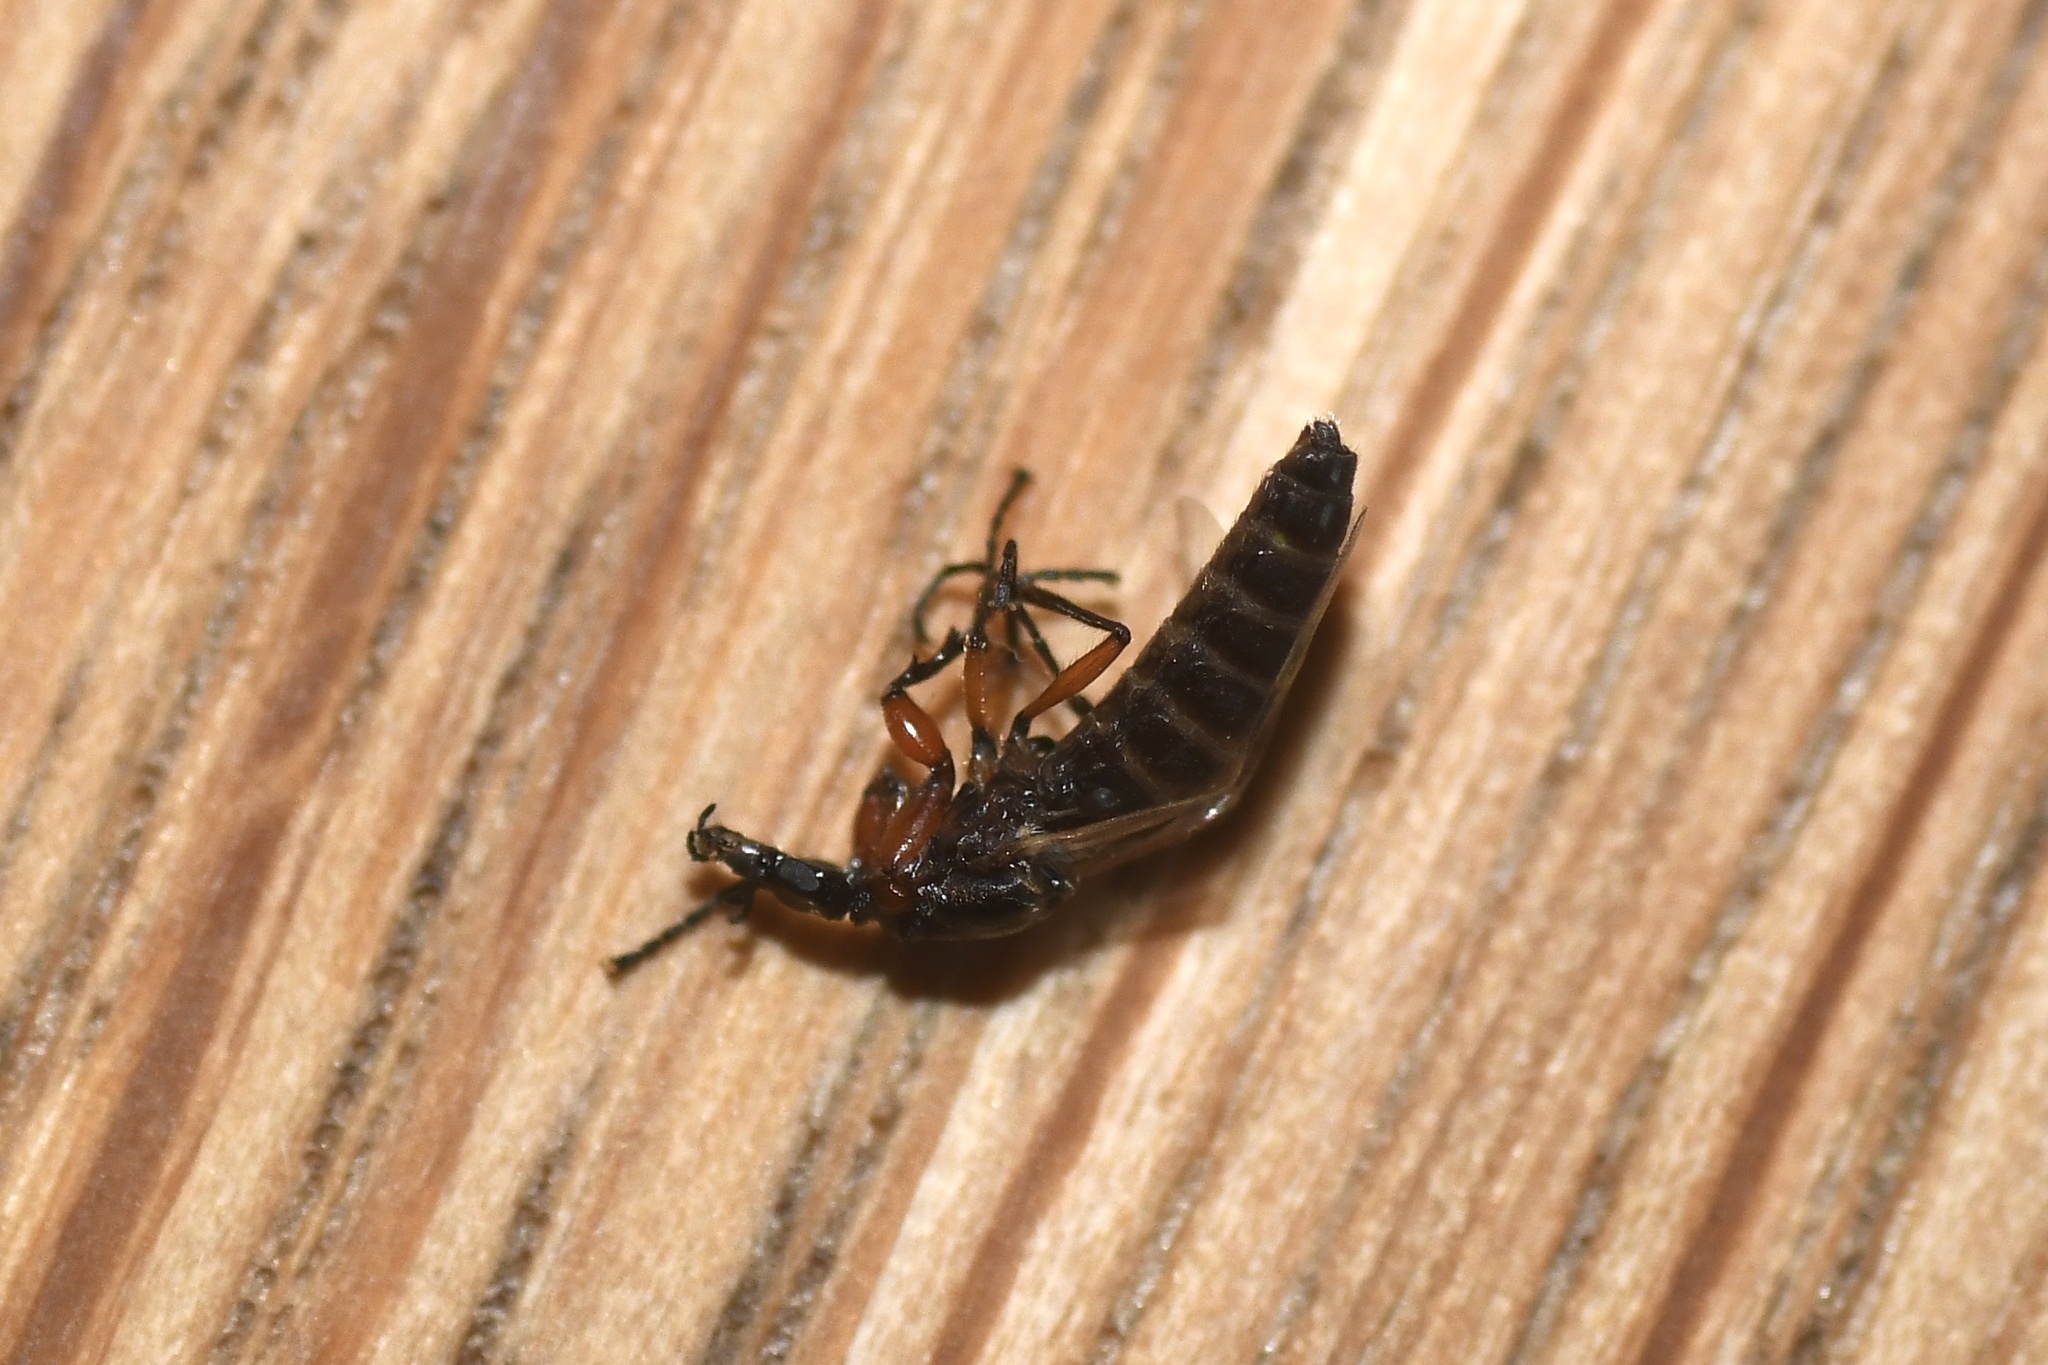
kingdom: Animalia
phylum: Arthropoda
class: Insecta
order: Diptera
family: Bibionidae
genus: Dilophus
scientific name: Dilophus
